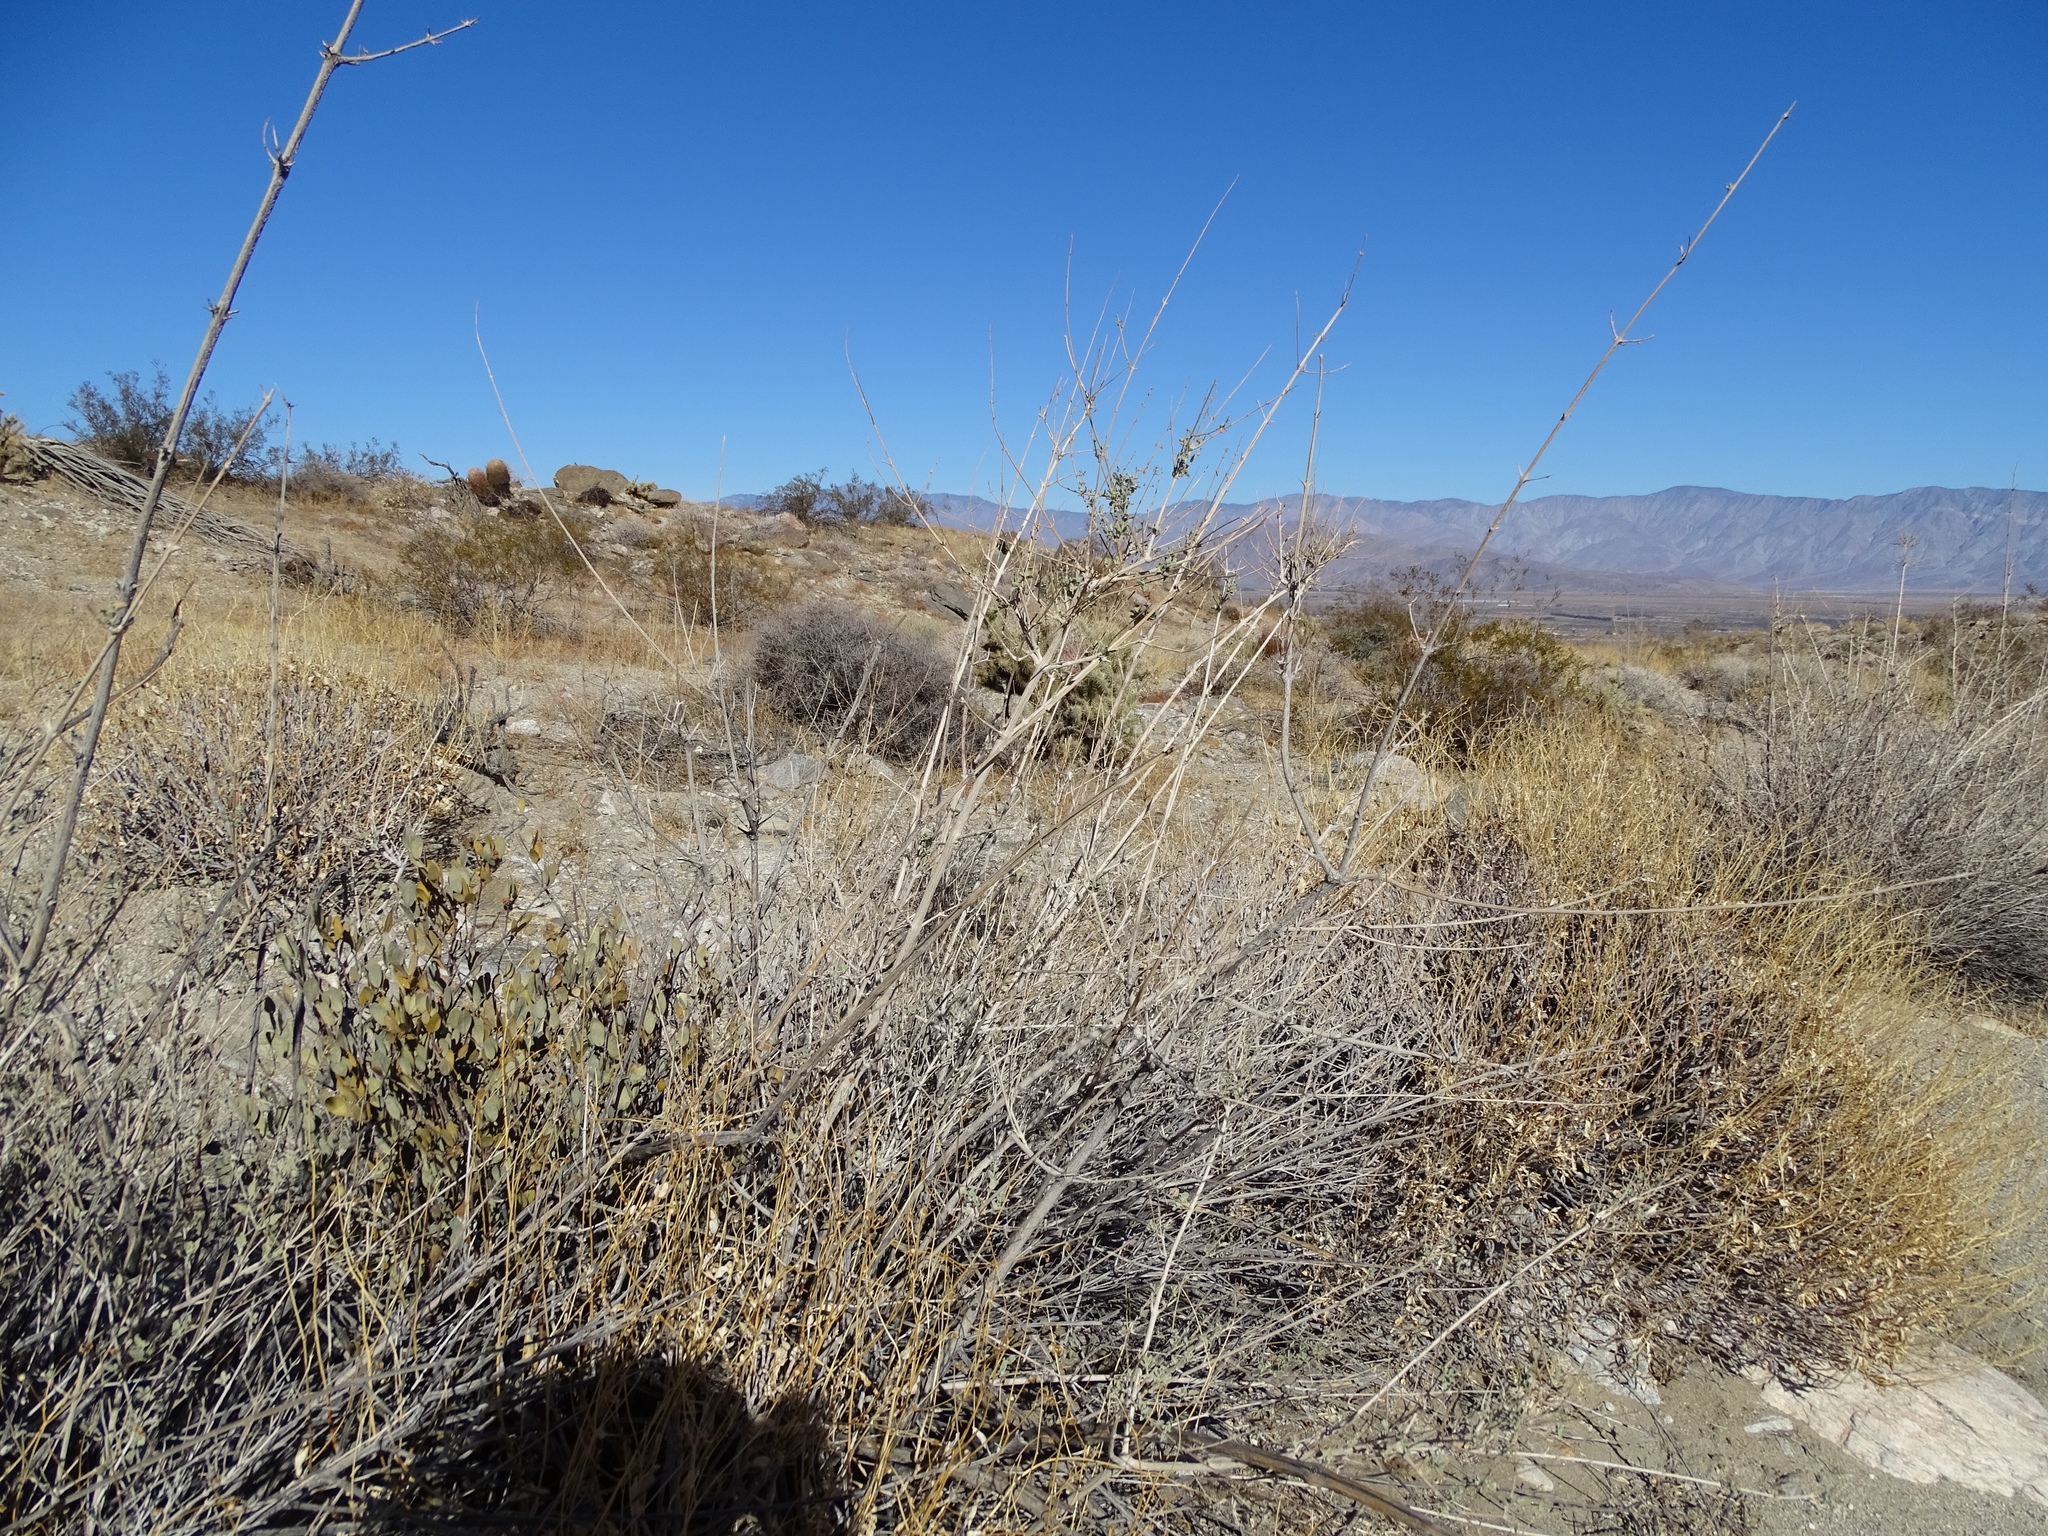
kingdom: Plantae
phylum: Tracheophyta
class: Magnoliopsida
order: Lamiales
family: Lamiaceae
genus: Condea
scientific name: Condea emoryi
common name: Chia
